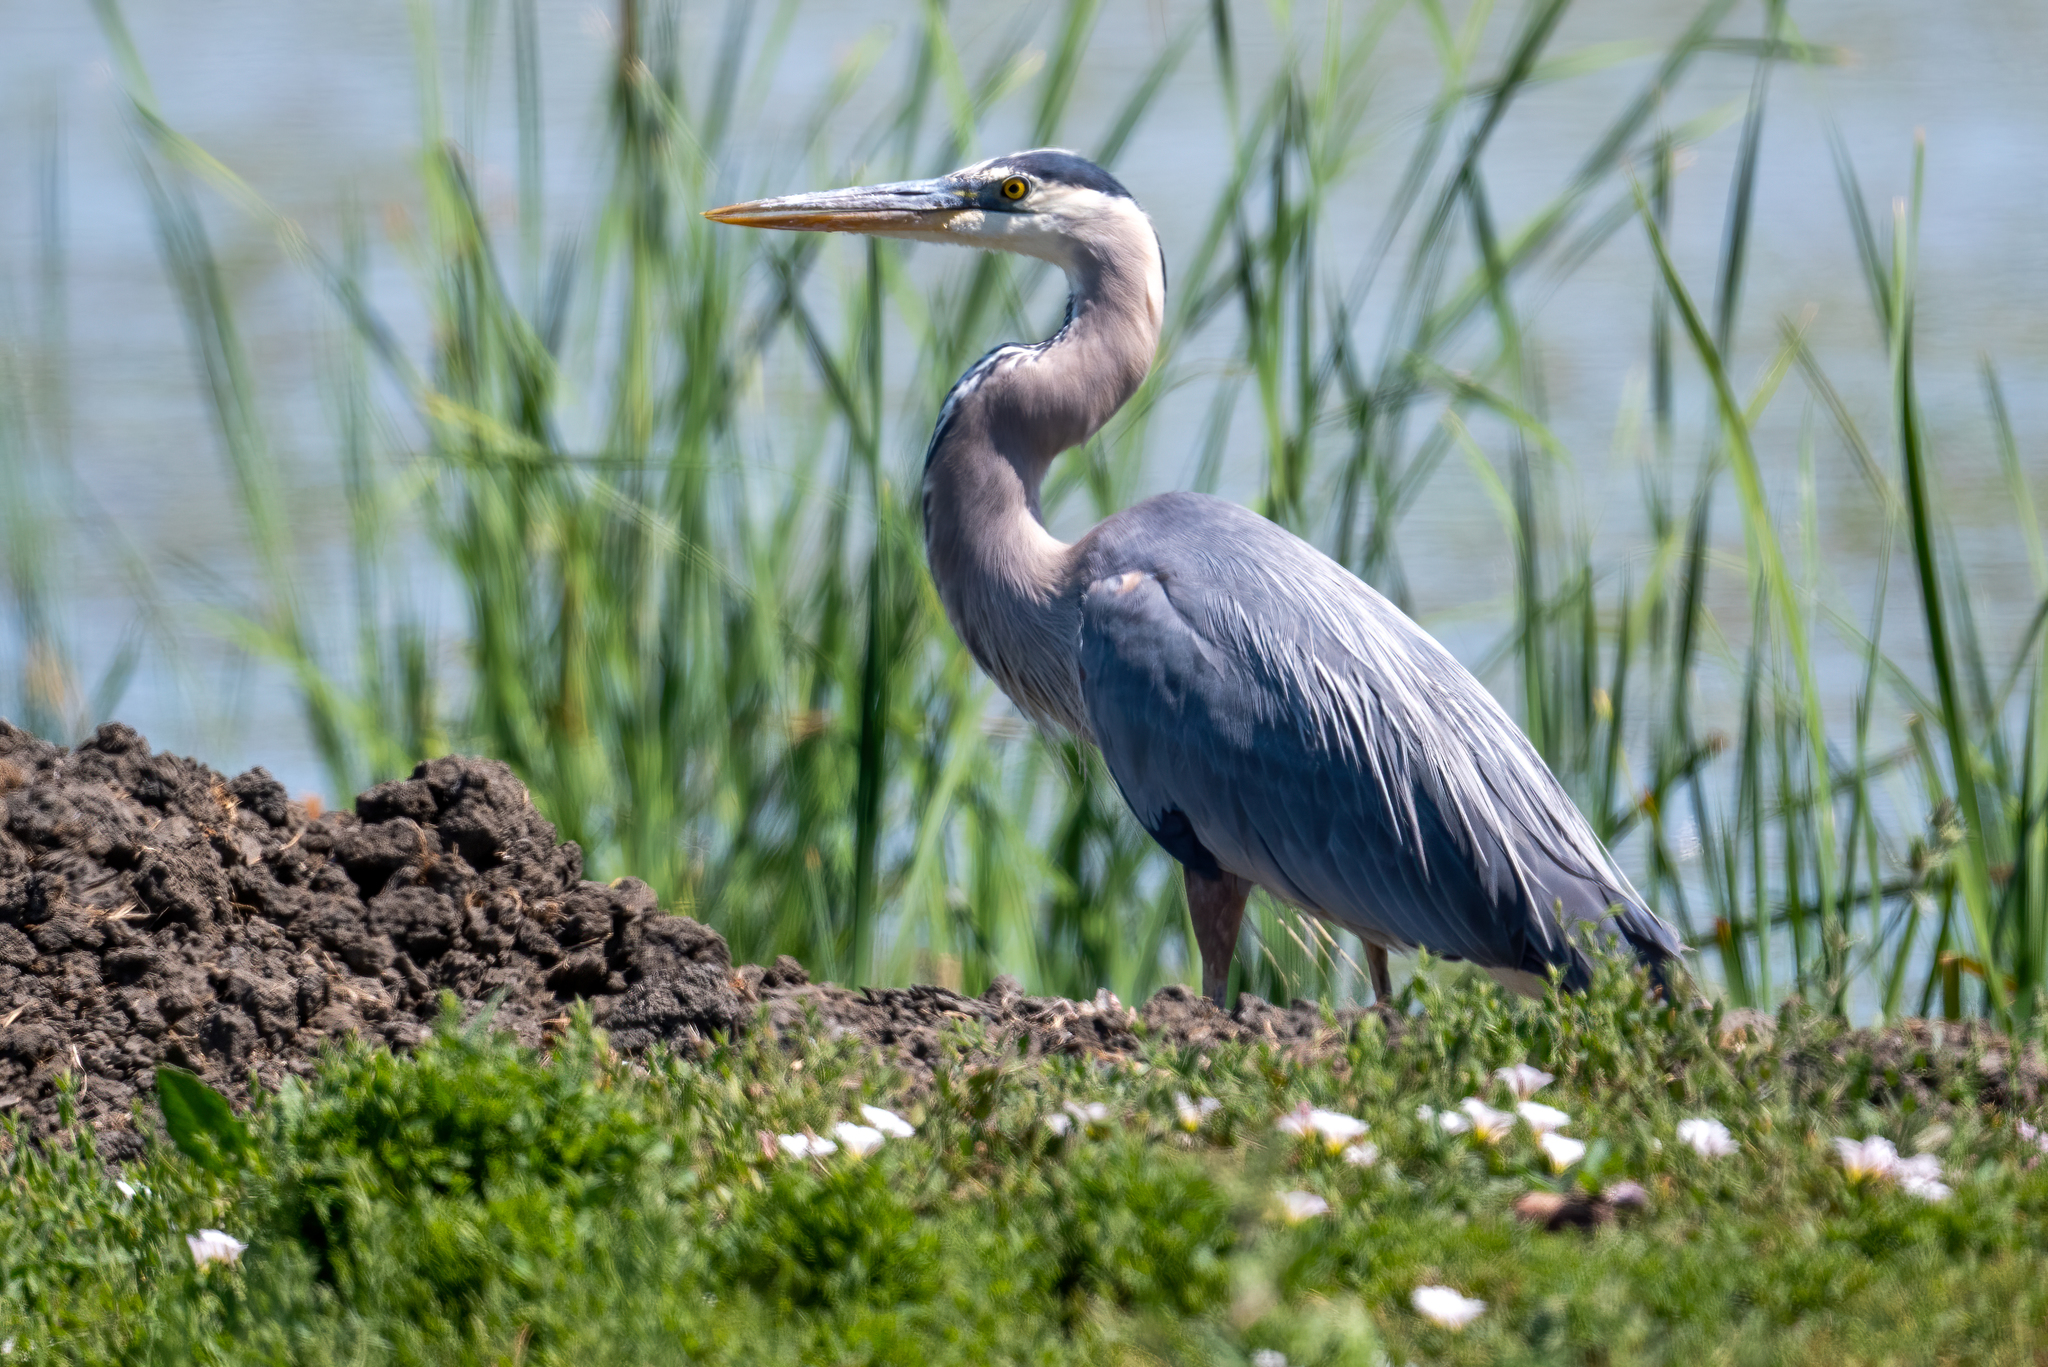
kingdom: Animalia
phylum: Chordata
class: Aves
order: Pelecaniformes
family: Ardeidae
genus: Ardea
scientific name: Ardea herodias
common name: Great blue heron
